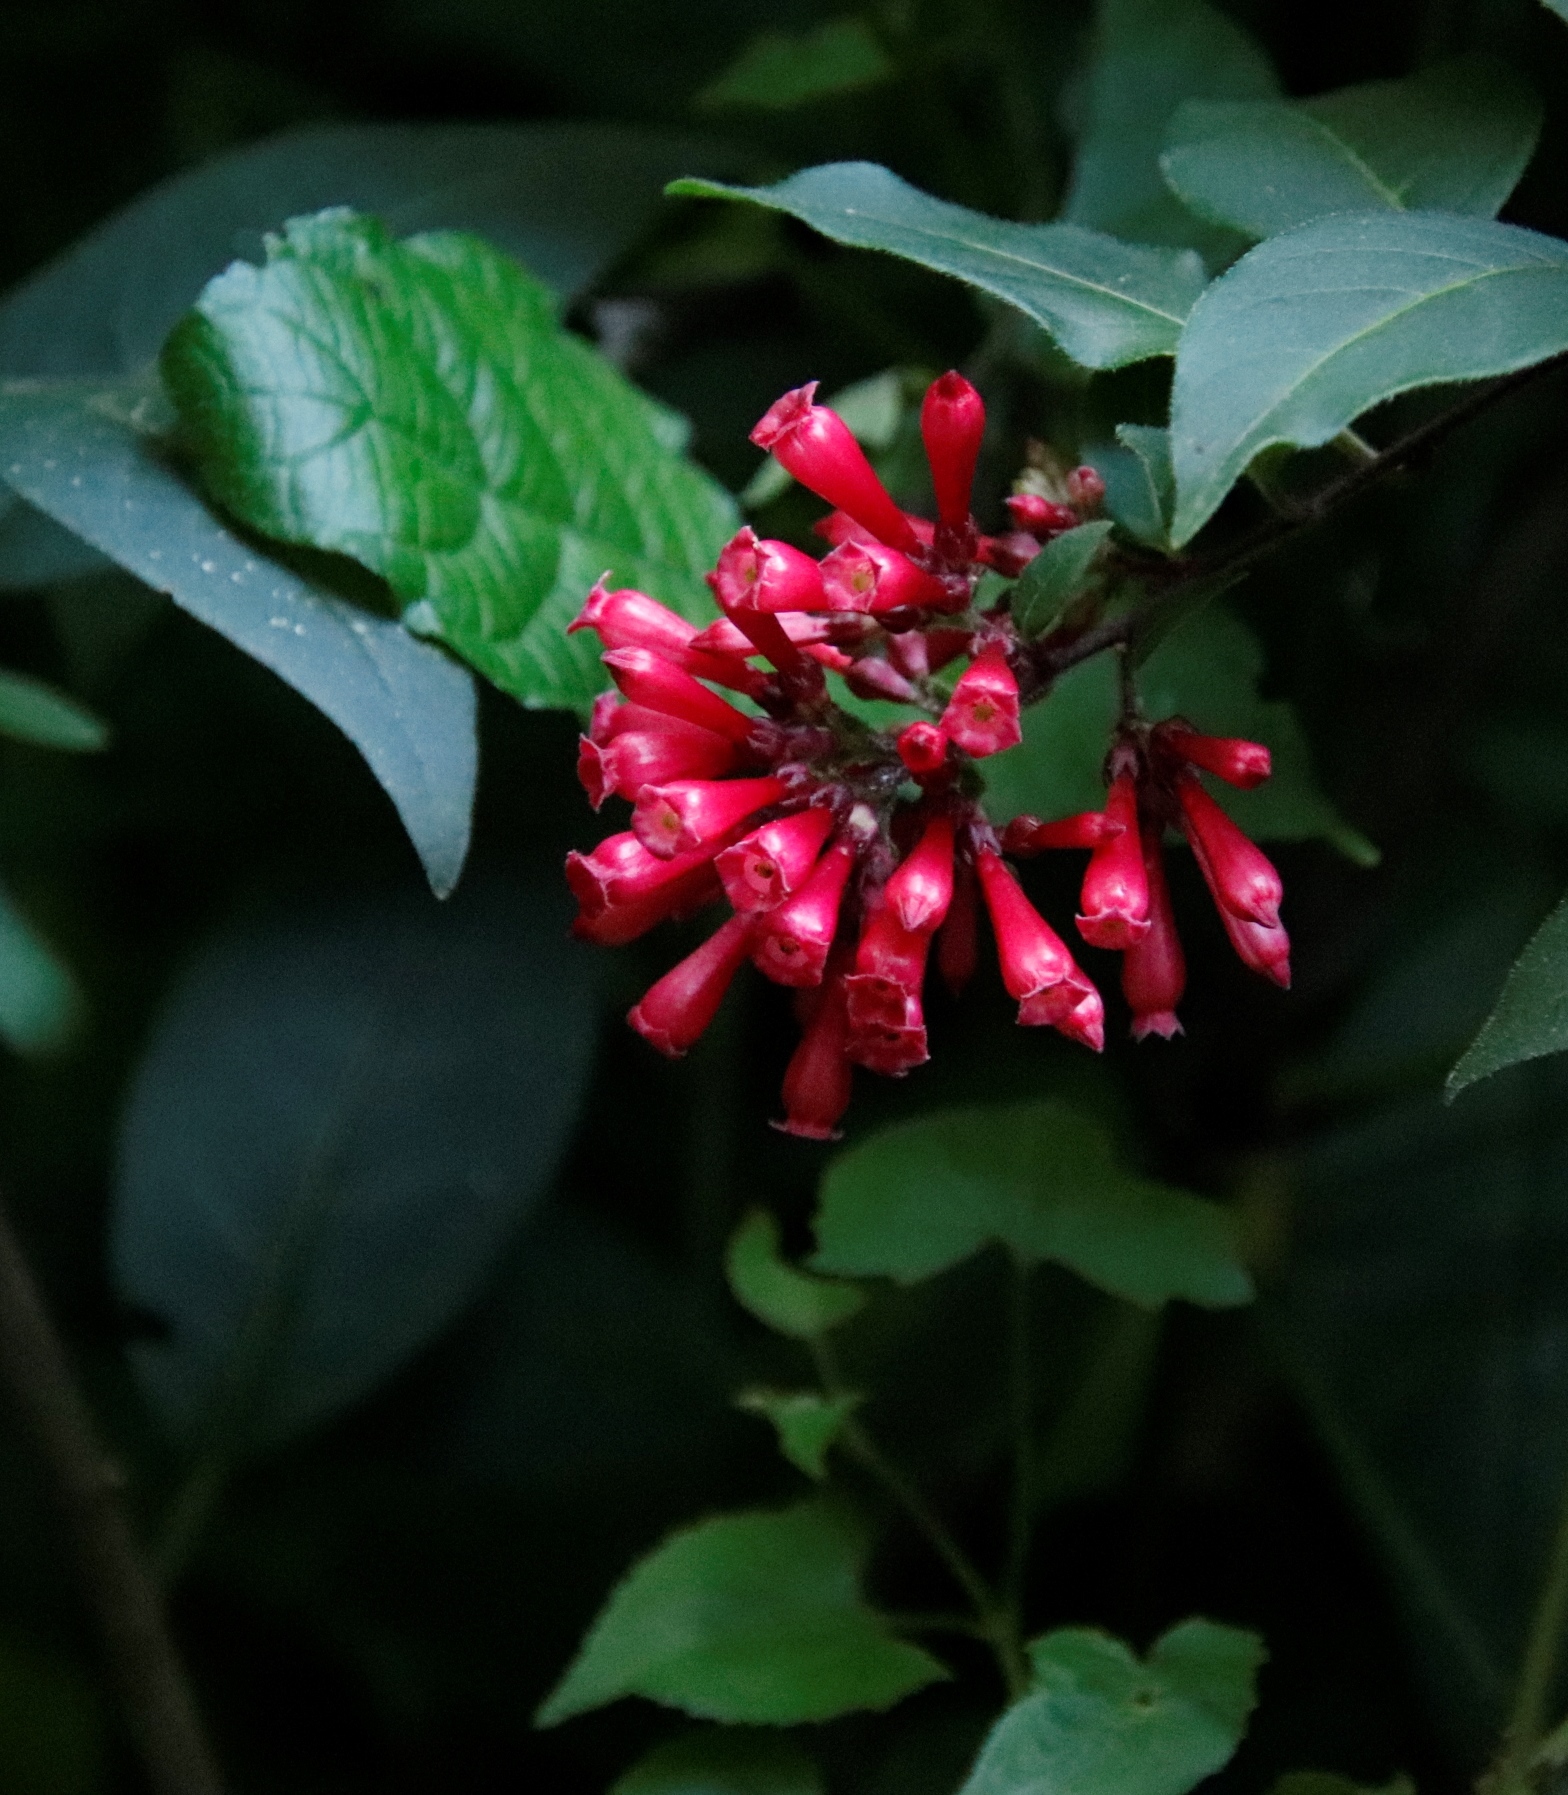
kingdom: Plantae
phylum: Tracheophyta
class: Magnoliopsida
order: Solanales
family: Solanaceae
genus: Cestrum
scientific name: Cestrum elegans
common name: Crimson cestrum
